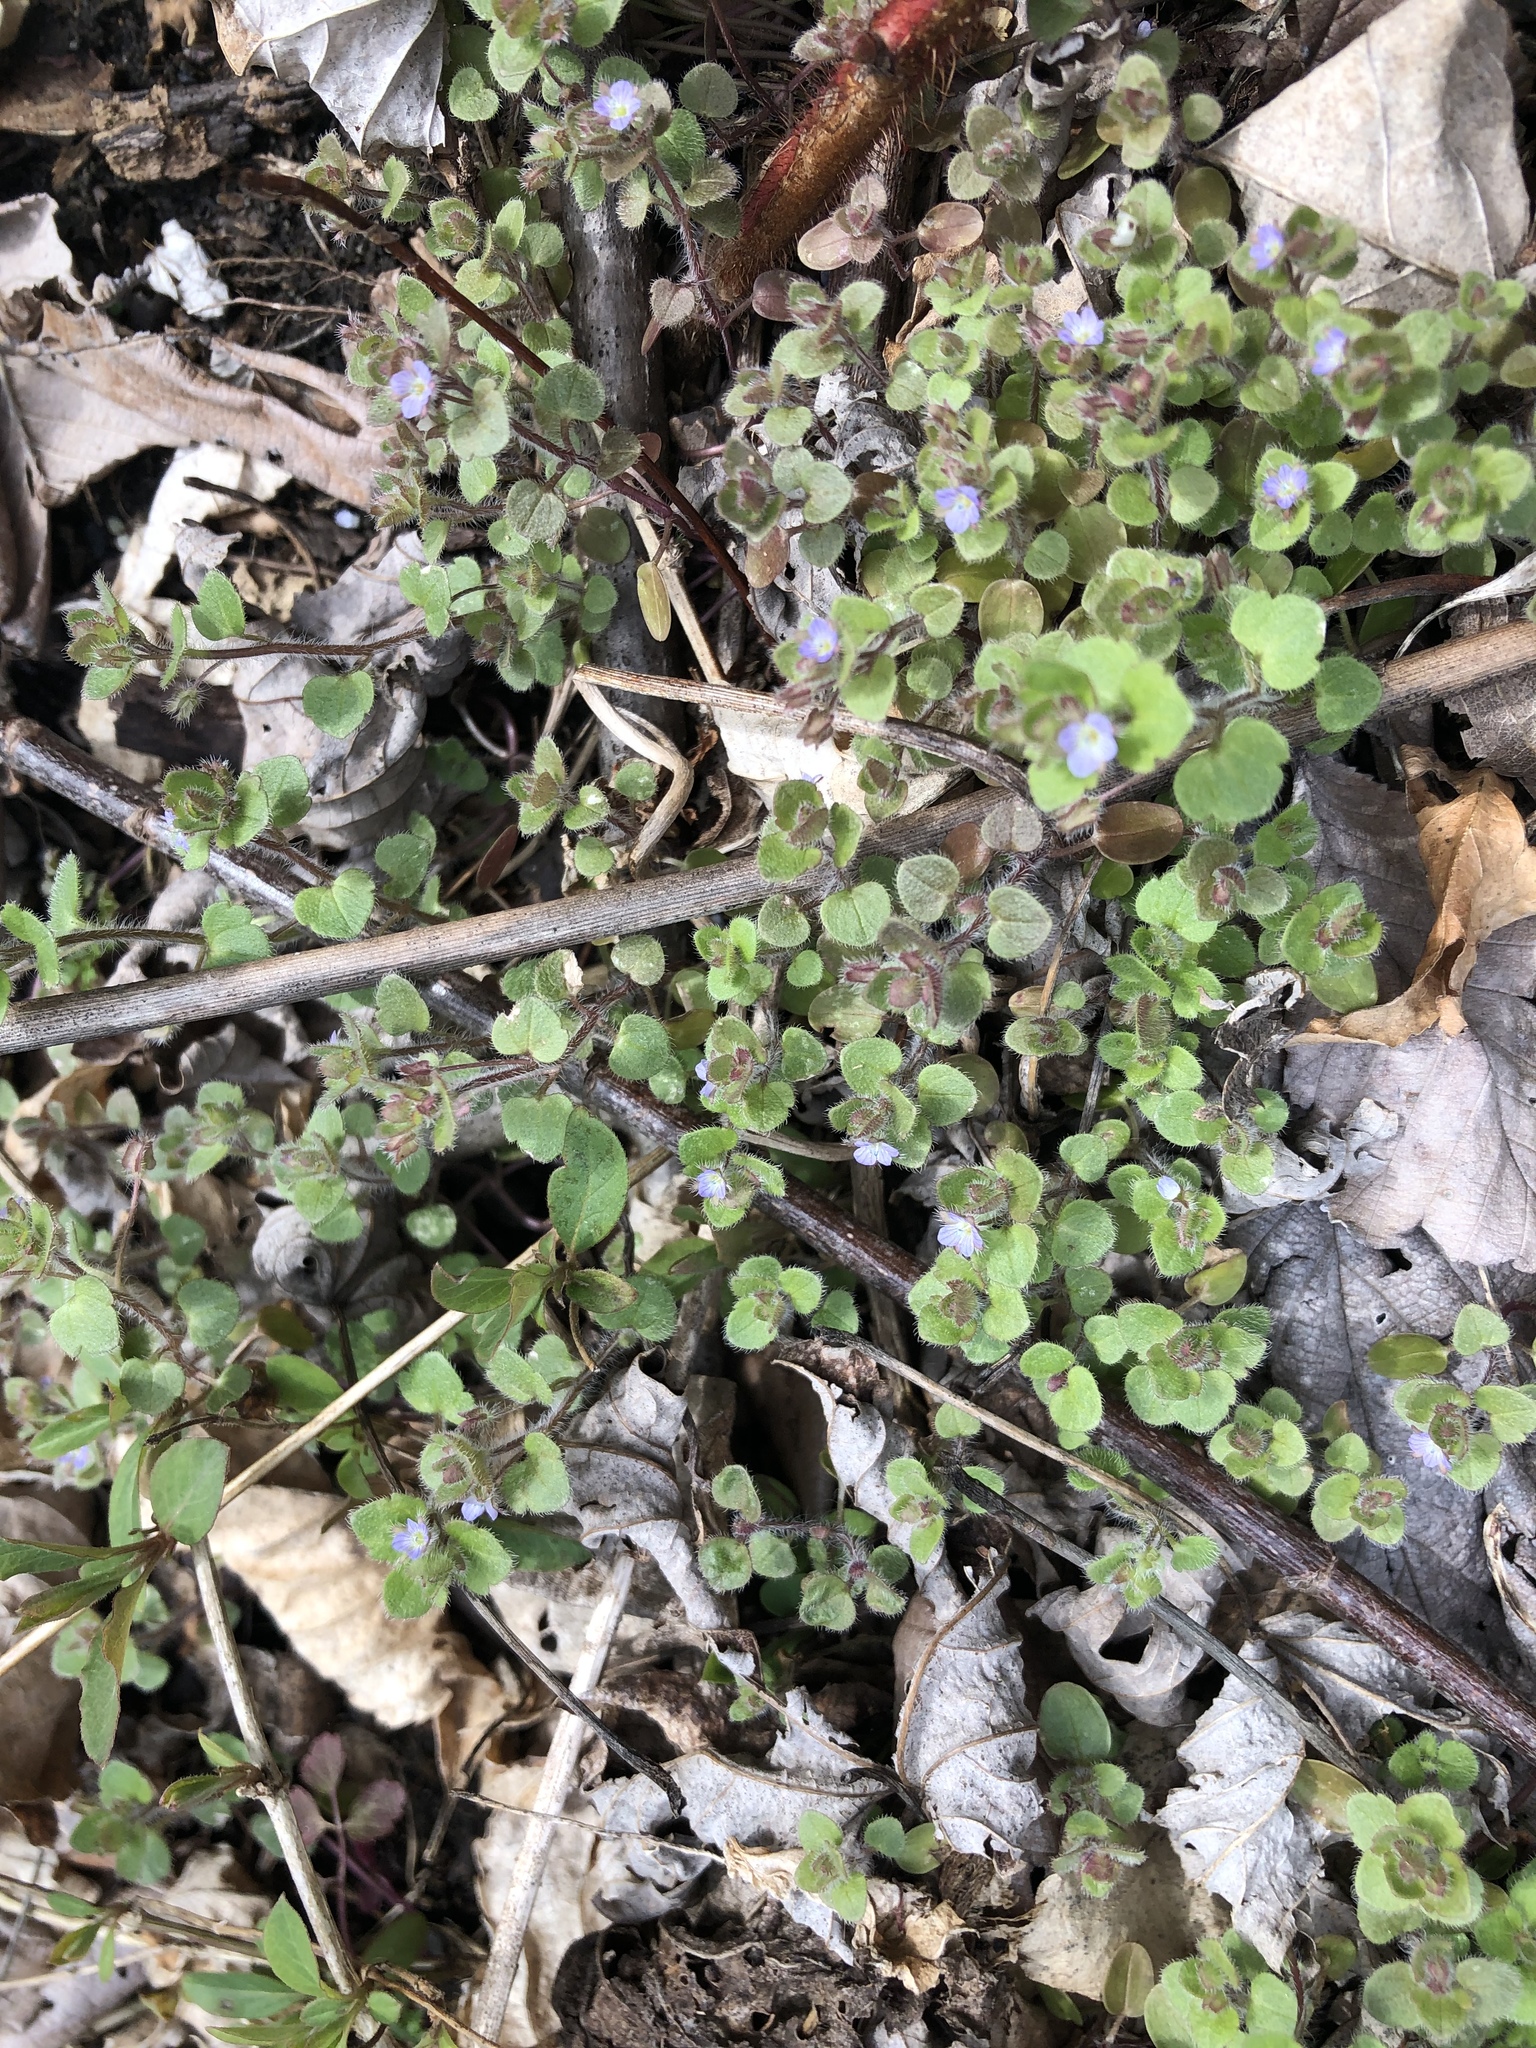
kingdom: Plantae
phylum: Tracheophyta
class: Magnoliopsida
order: Lamiales
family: Plantaginaceae
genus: Veronica
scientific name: Veronica hederifolia
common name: Ivy-leaved speedwell
